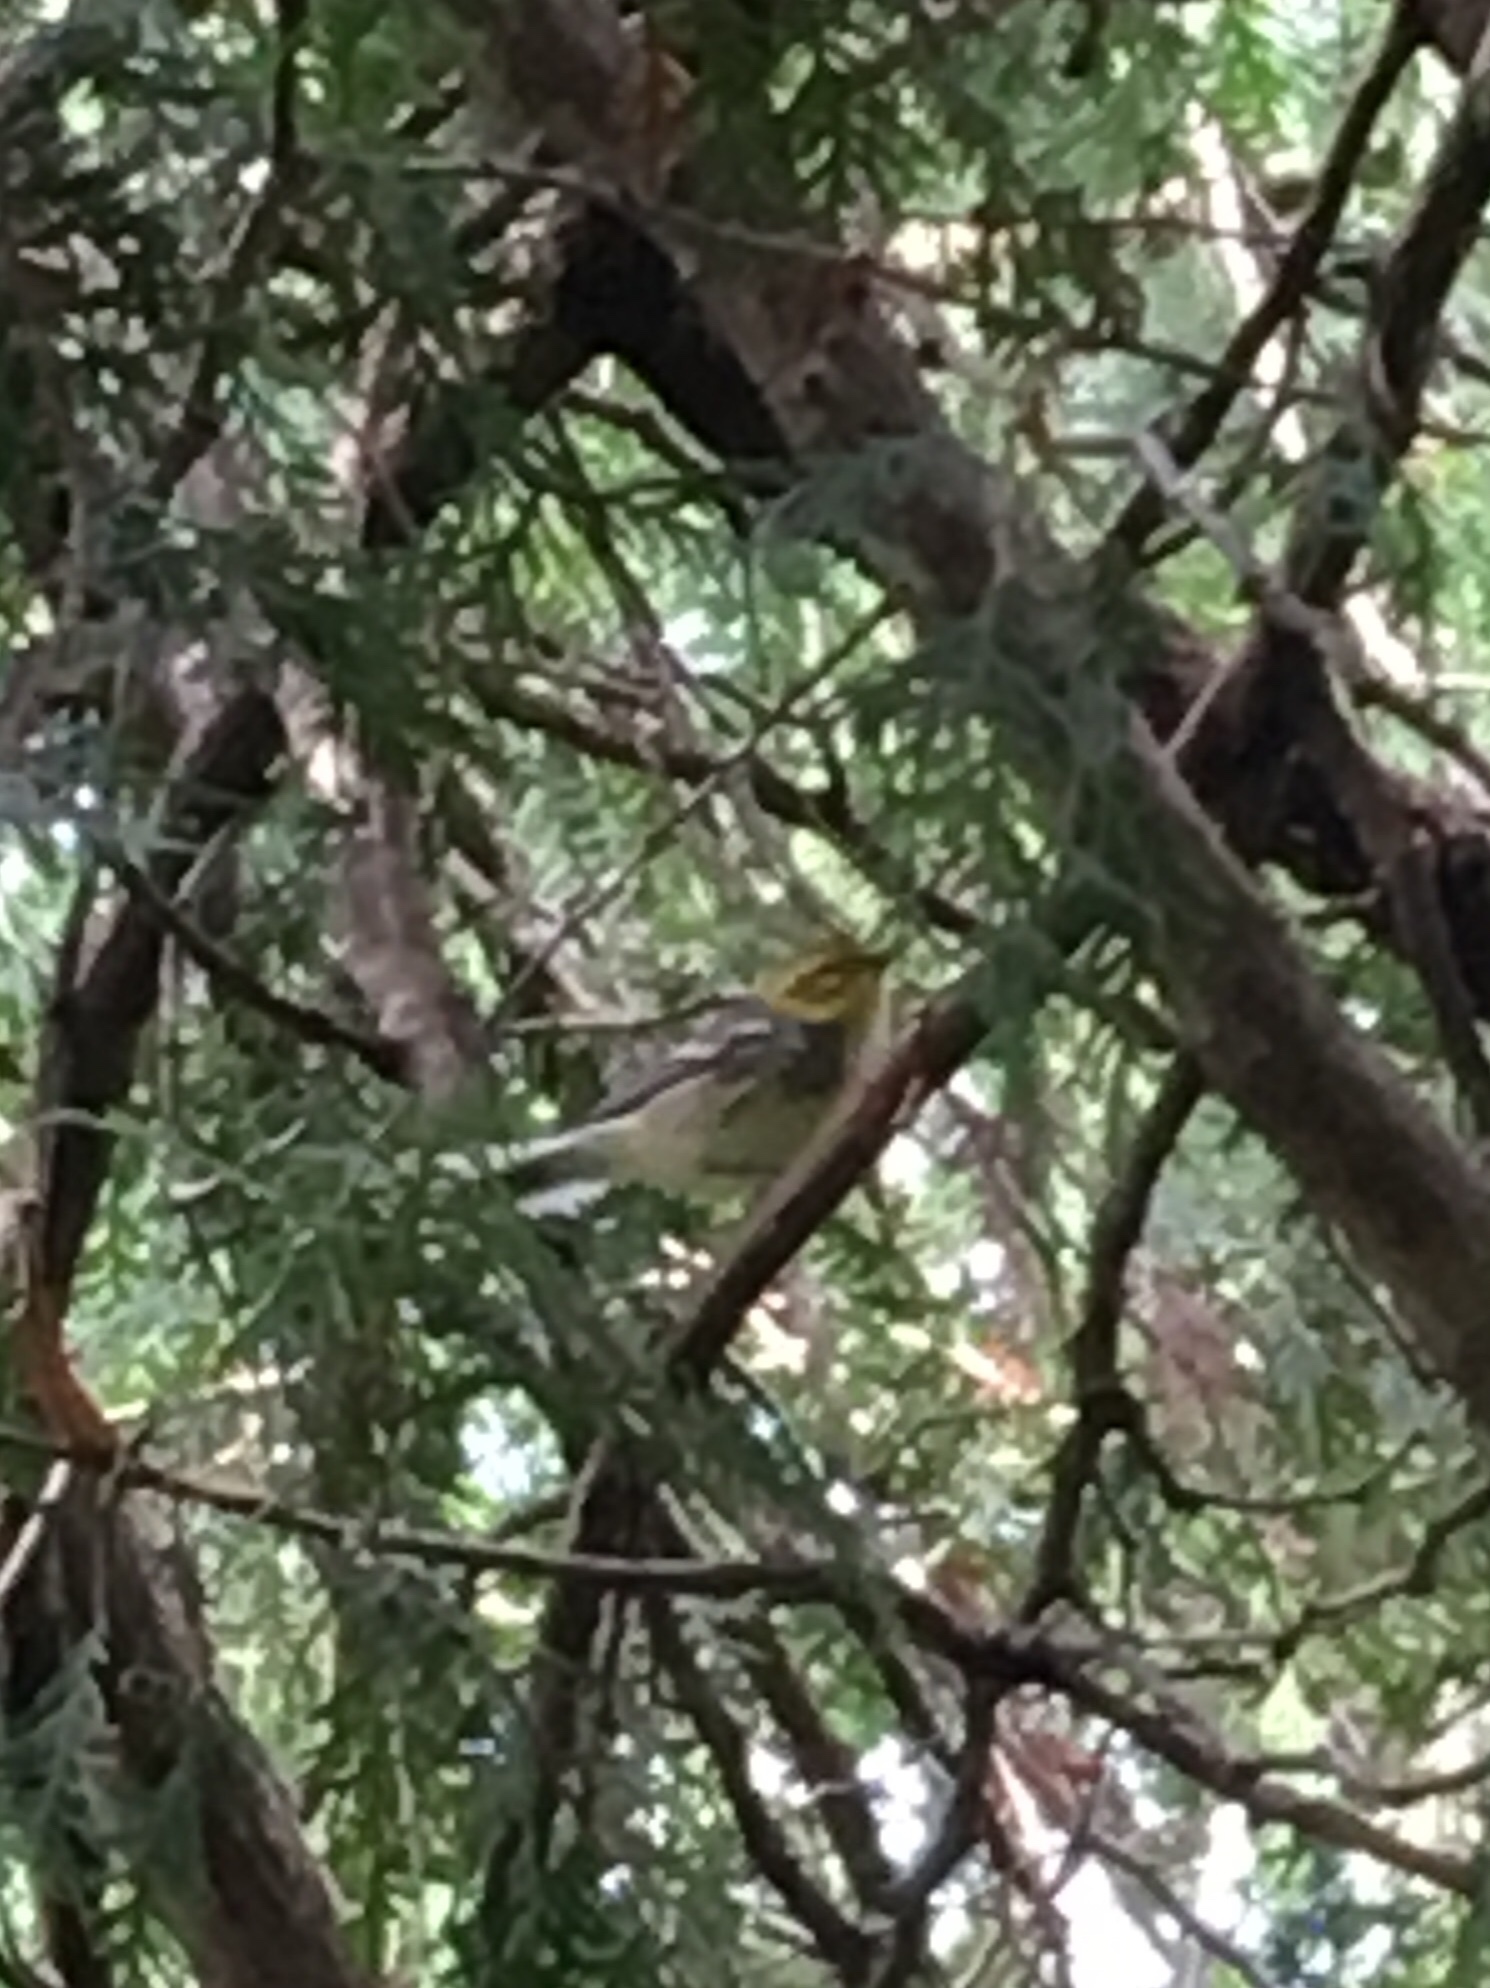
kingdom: Animalia
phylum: Chordata
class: Aves
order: Passeriformes
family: Parulidae
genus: Setophaga
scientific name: Setophaga virens
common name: Black-throated green warbler
